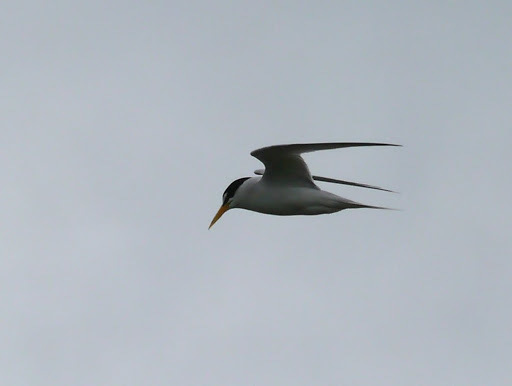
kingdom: Animalia
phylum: Chordata
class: Aves
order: Charadriiformes
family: Laridae
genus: Sternula
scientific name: Sternula antillarum
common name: Least tern
